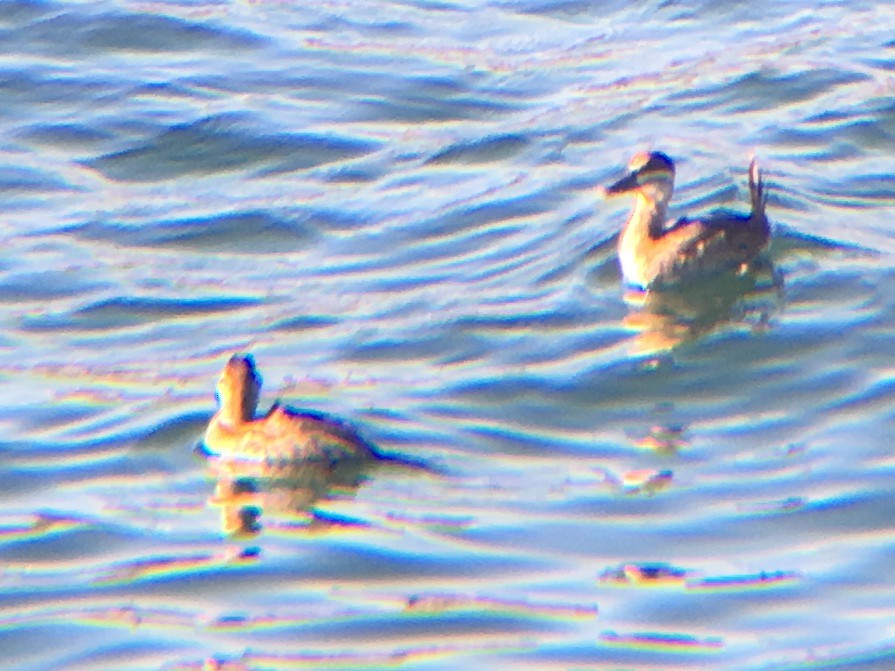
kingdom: Animalia
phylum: Chordata
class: Aves
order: Anseriformes
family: Anatidae
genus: Oxyura
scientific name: Oxyura jamaicensis
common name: Ruddy duck
